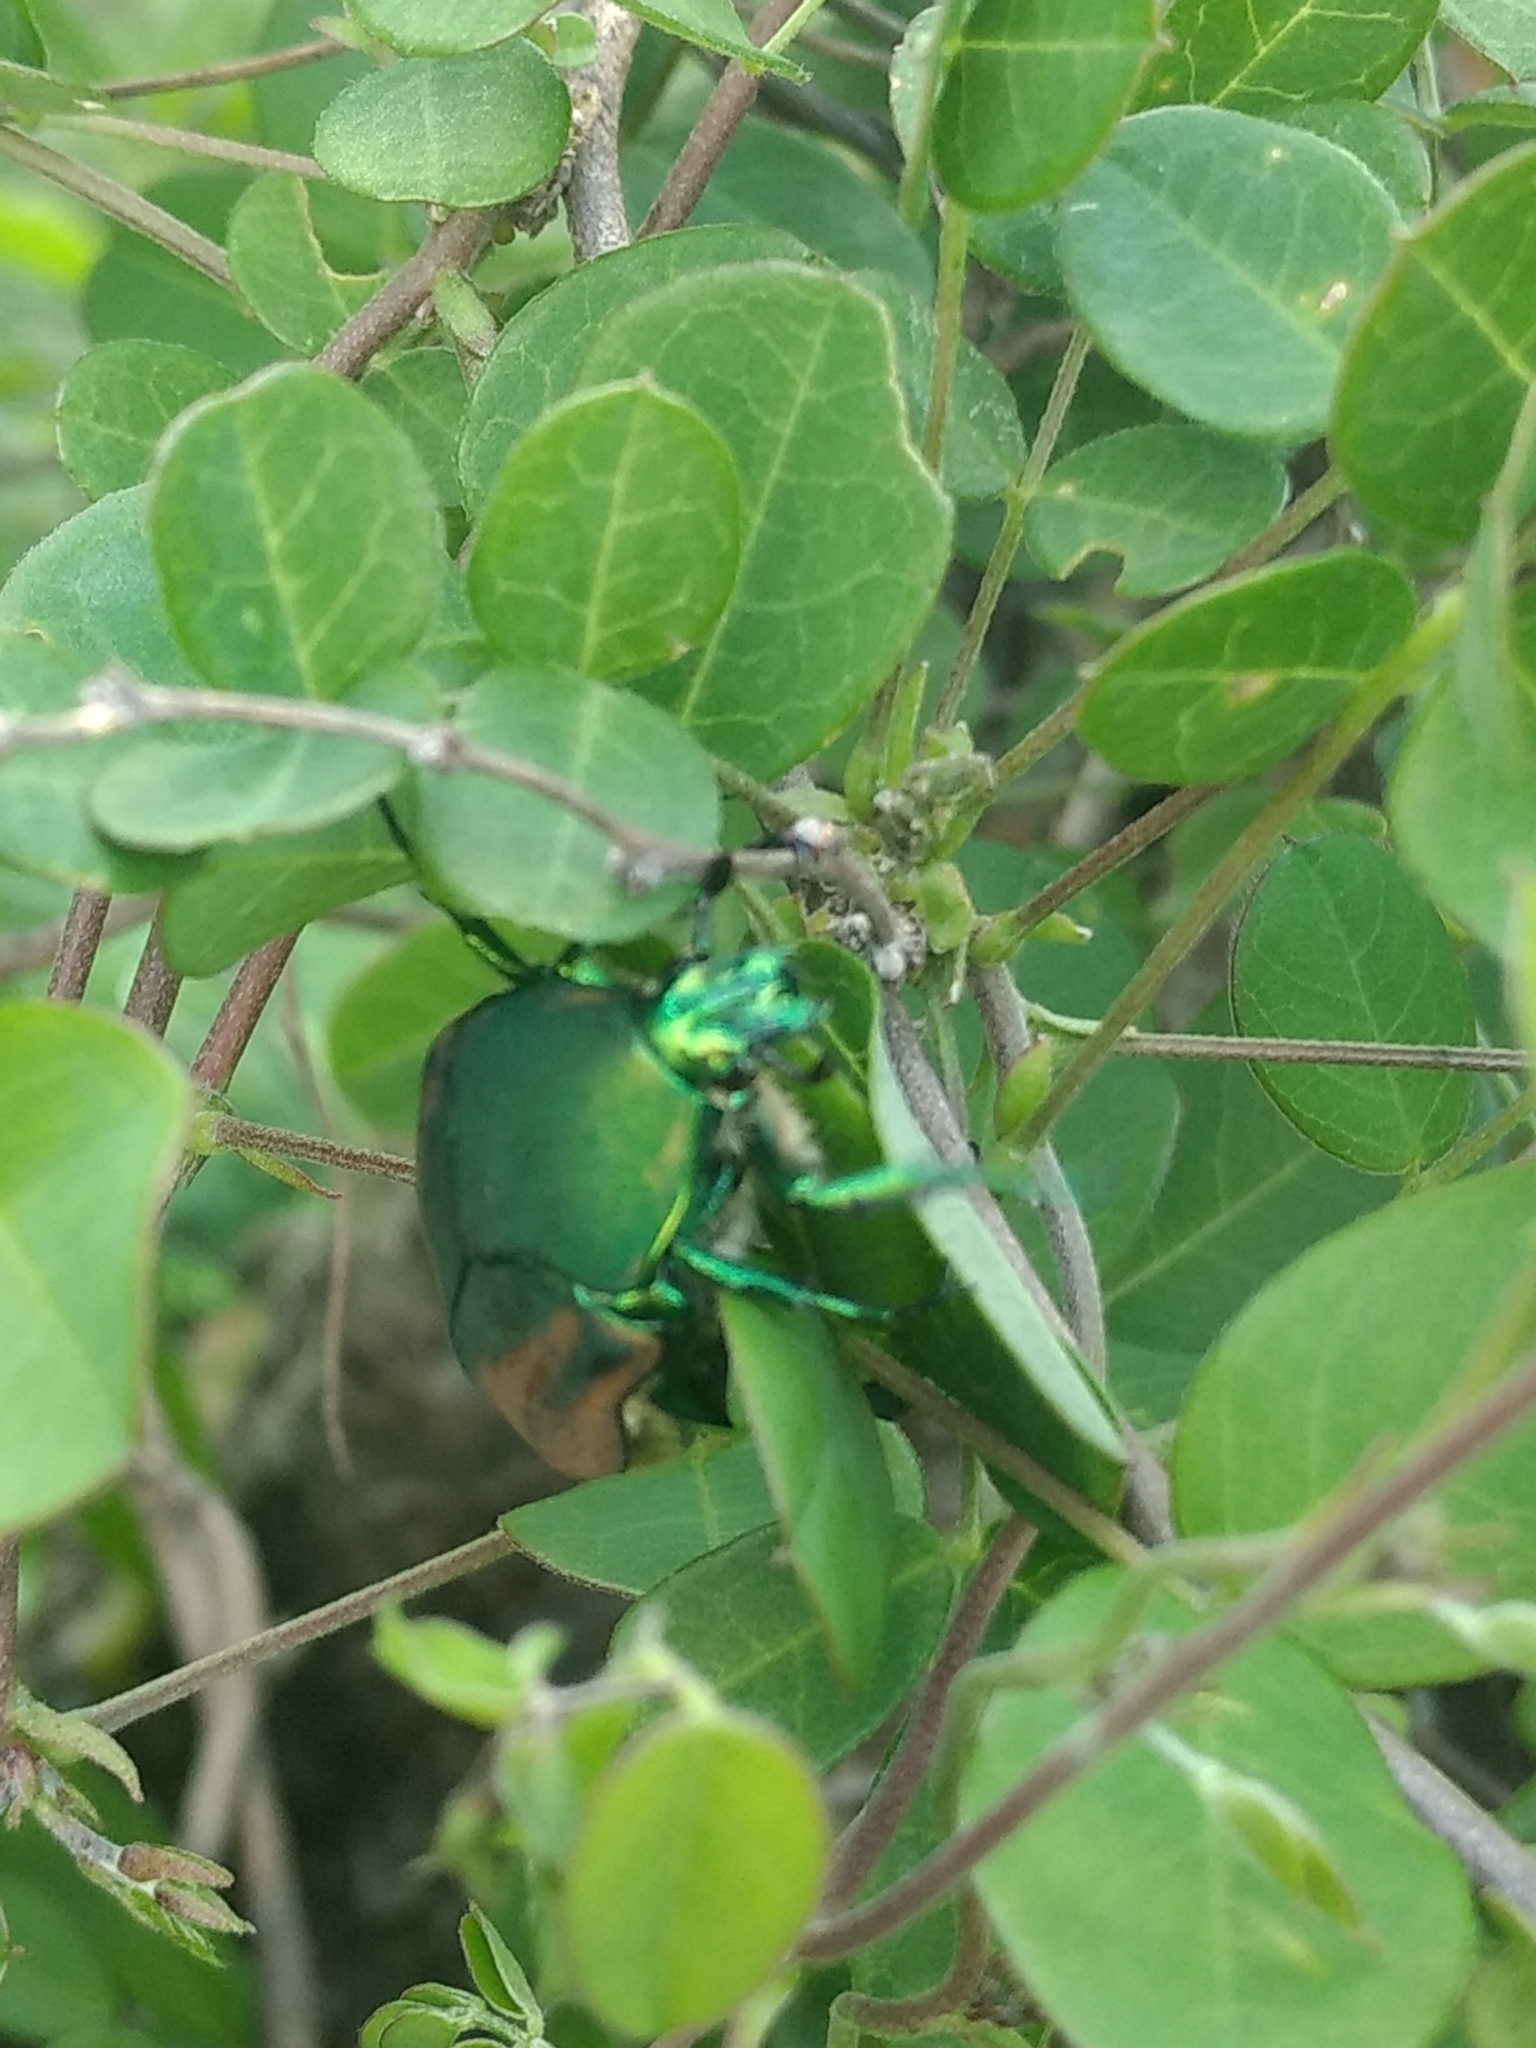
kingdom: Animalia
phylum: Arthropoda
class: Insecta
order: Coleoptera
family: Scarabaeidae
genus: Cotinis
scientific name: Cotinis mutabilis
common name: Figeater beetle
